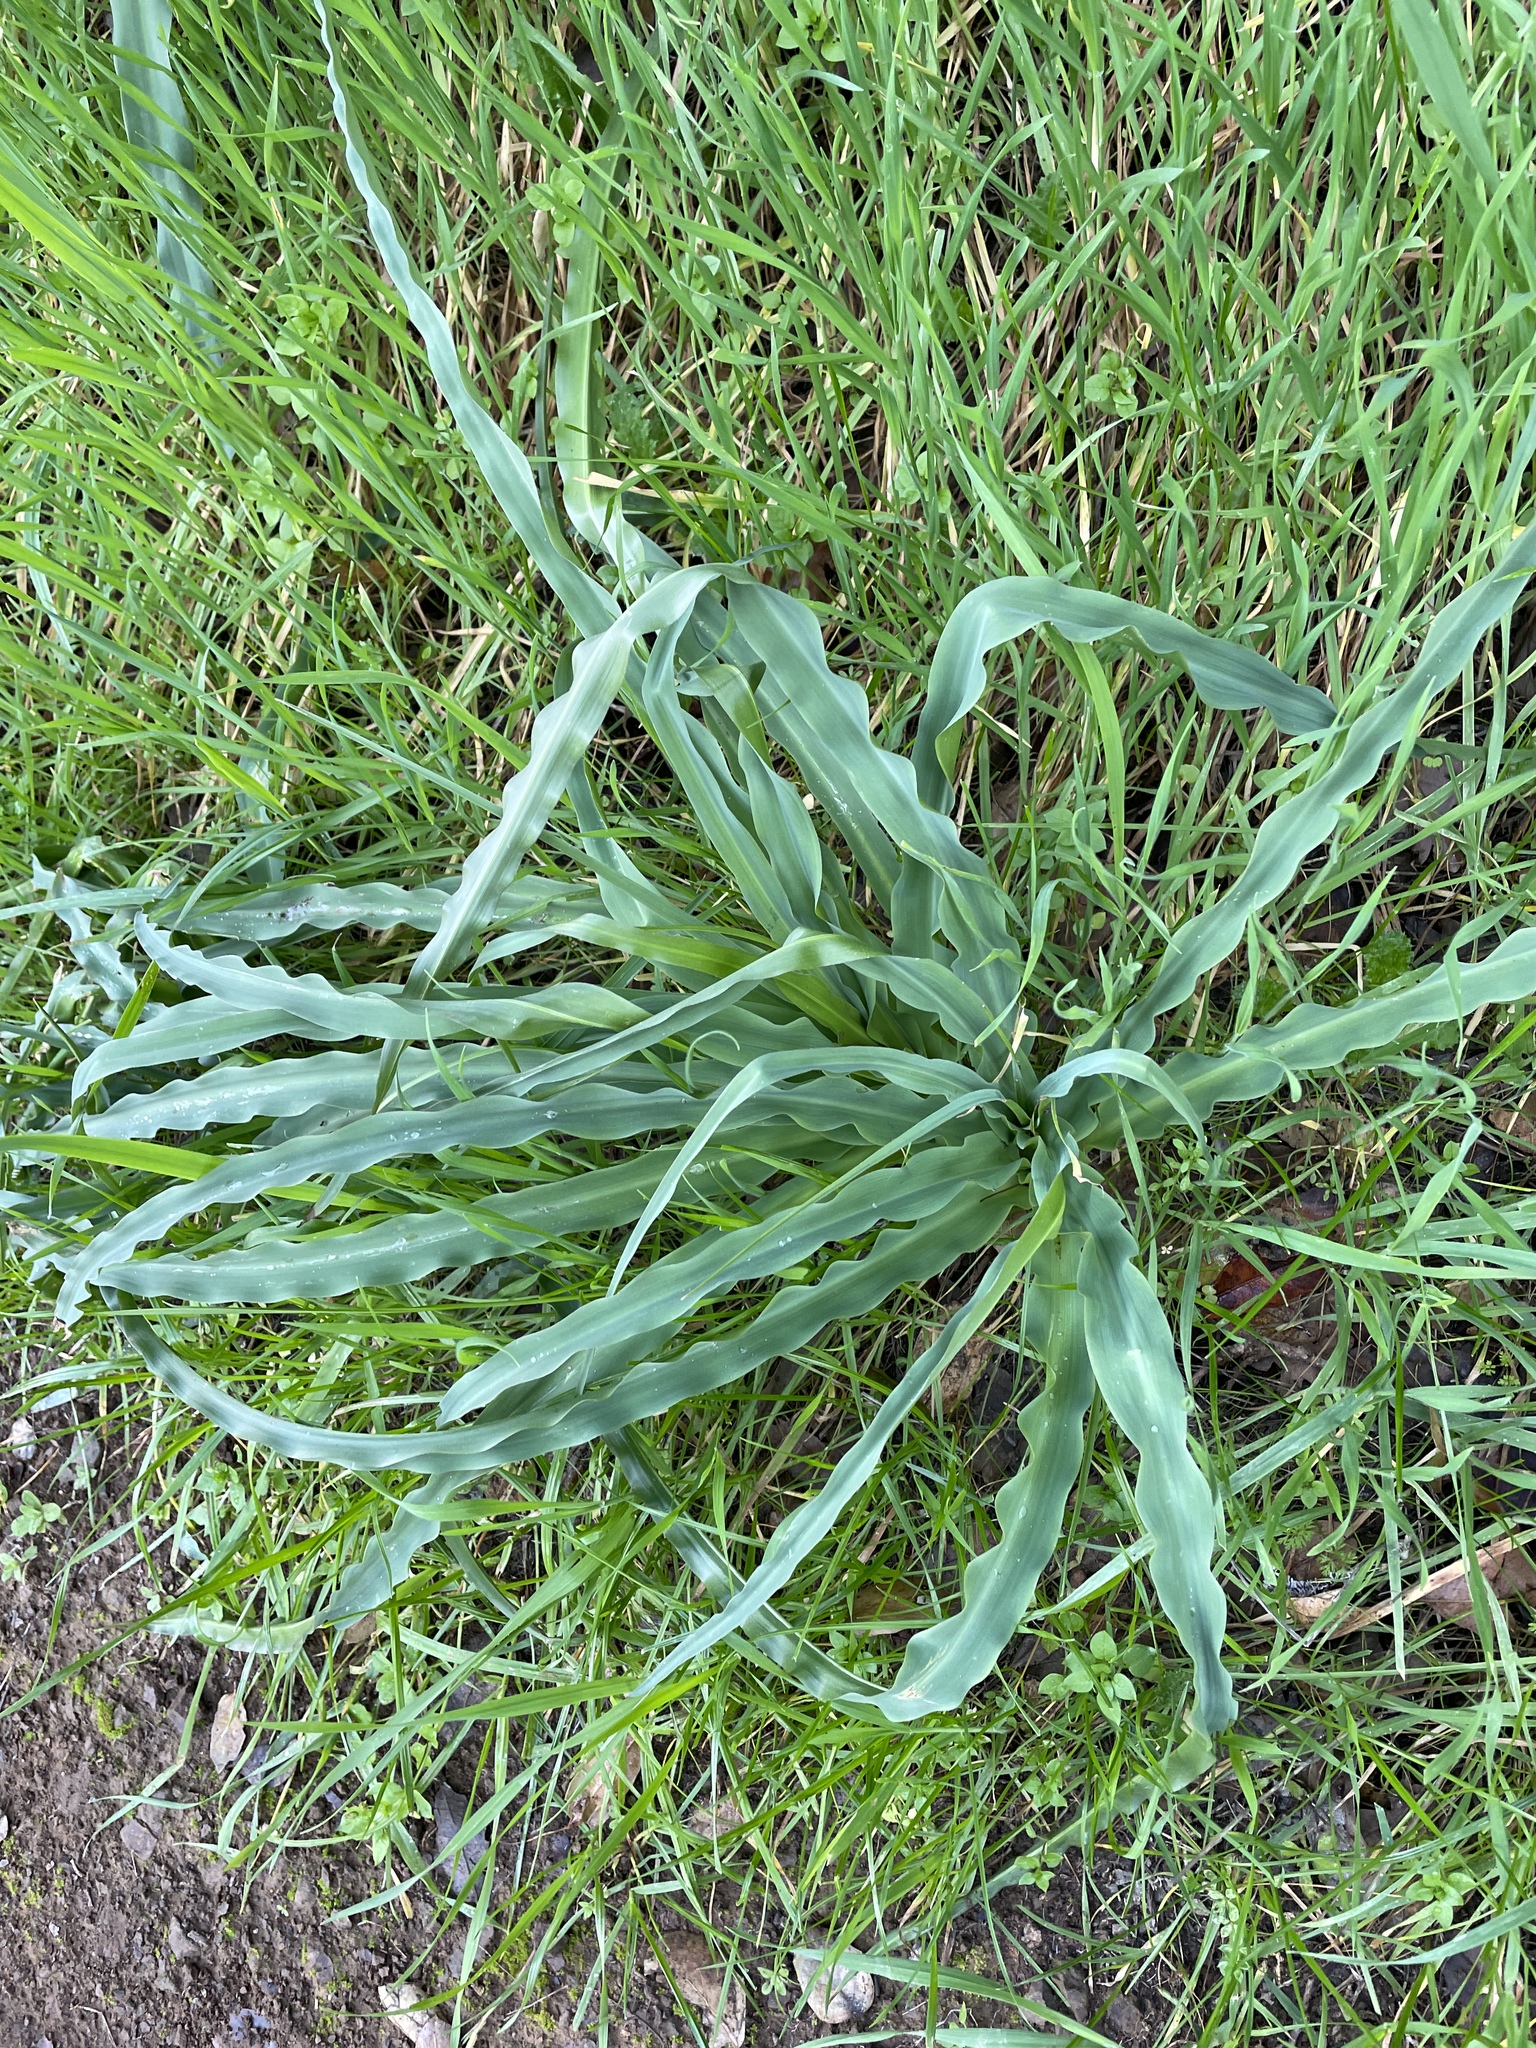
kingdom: Plantae
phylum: Tracheophyta
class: Liliopsida
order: Asparagales
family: Asparagaceae
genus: Chlorogalum
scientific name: Chlorogalum pomeridianum
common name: Amole
